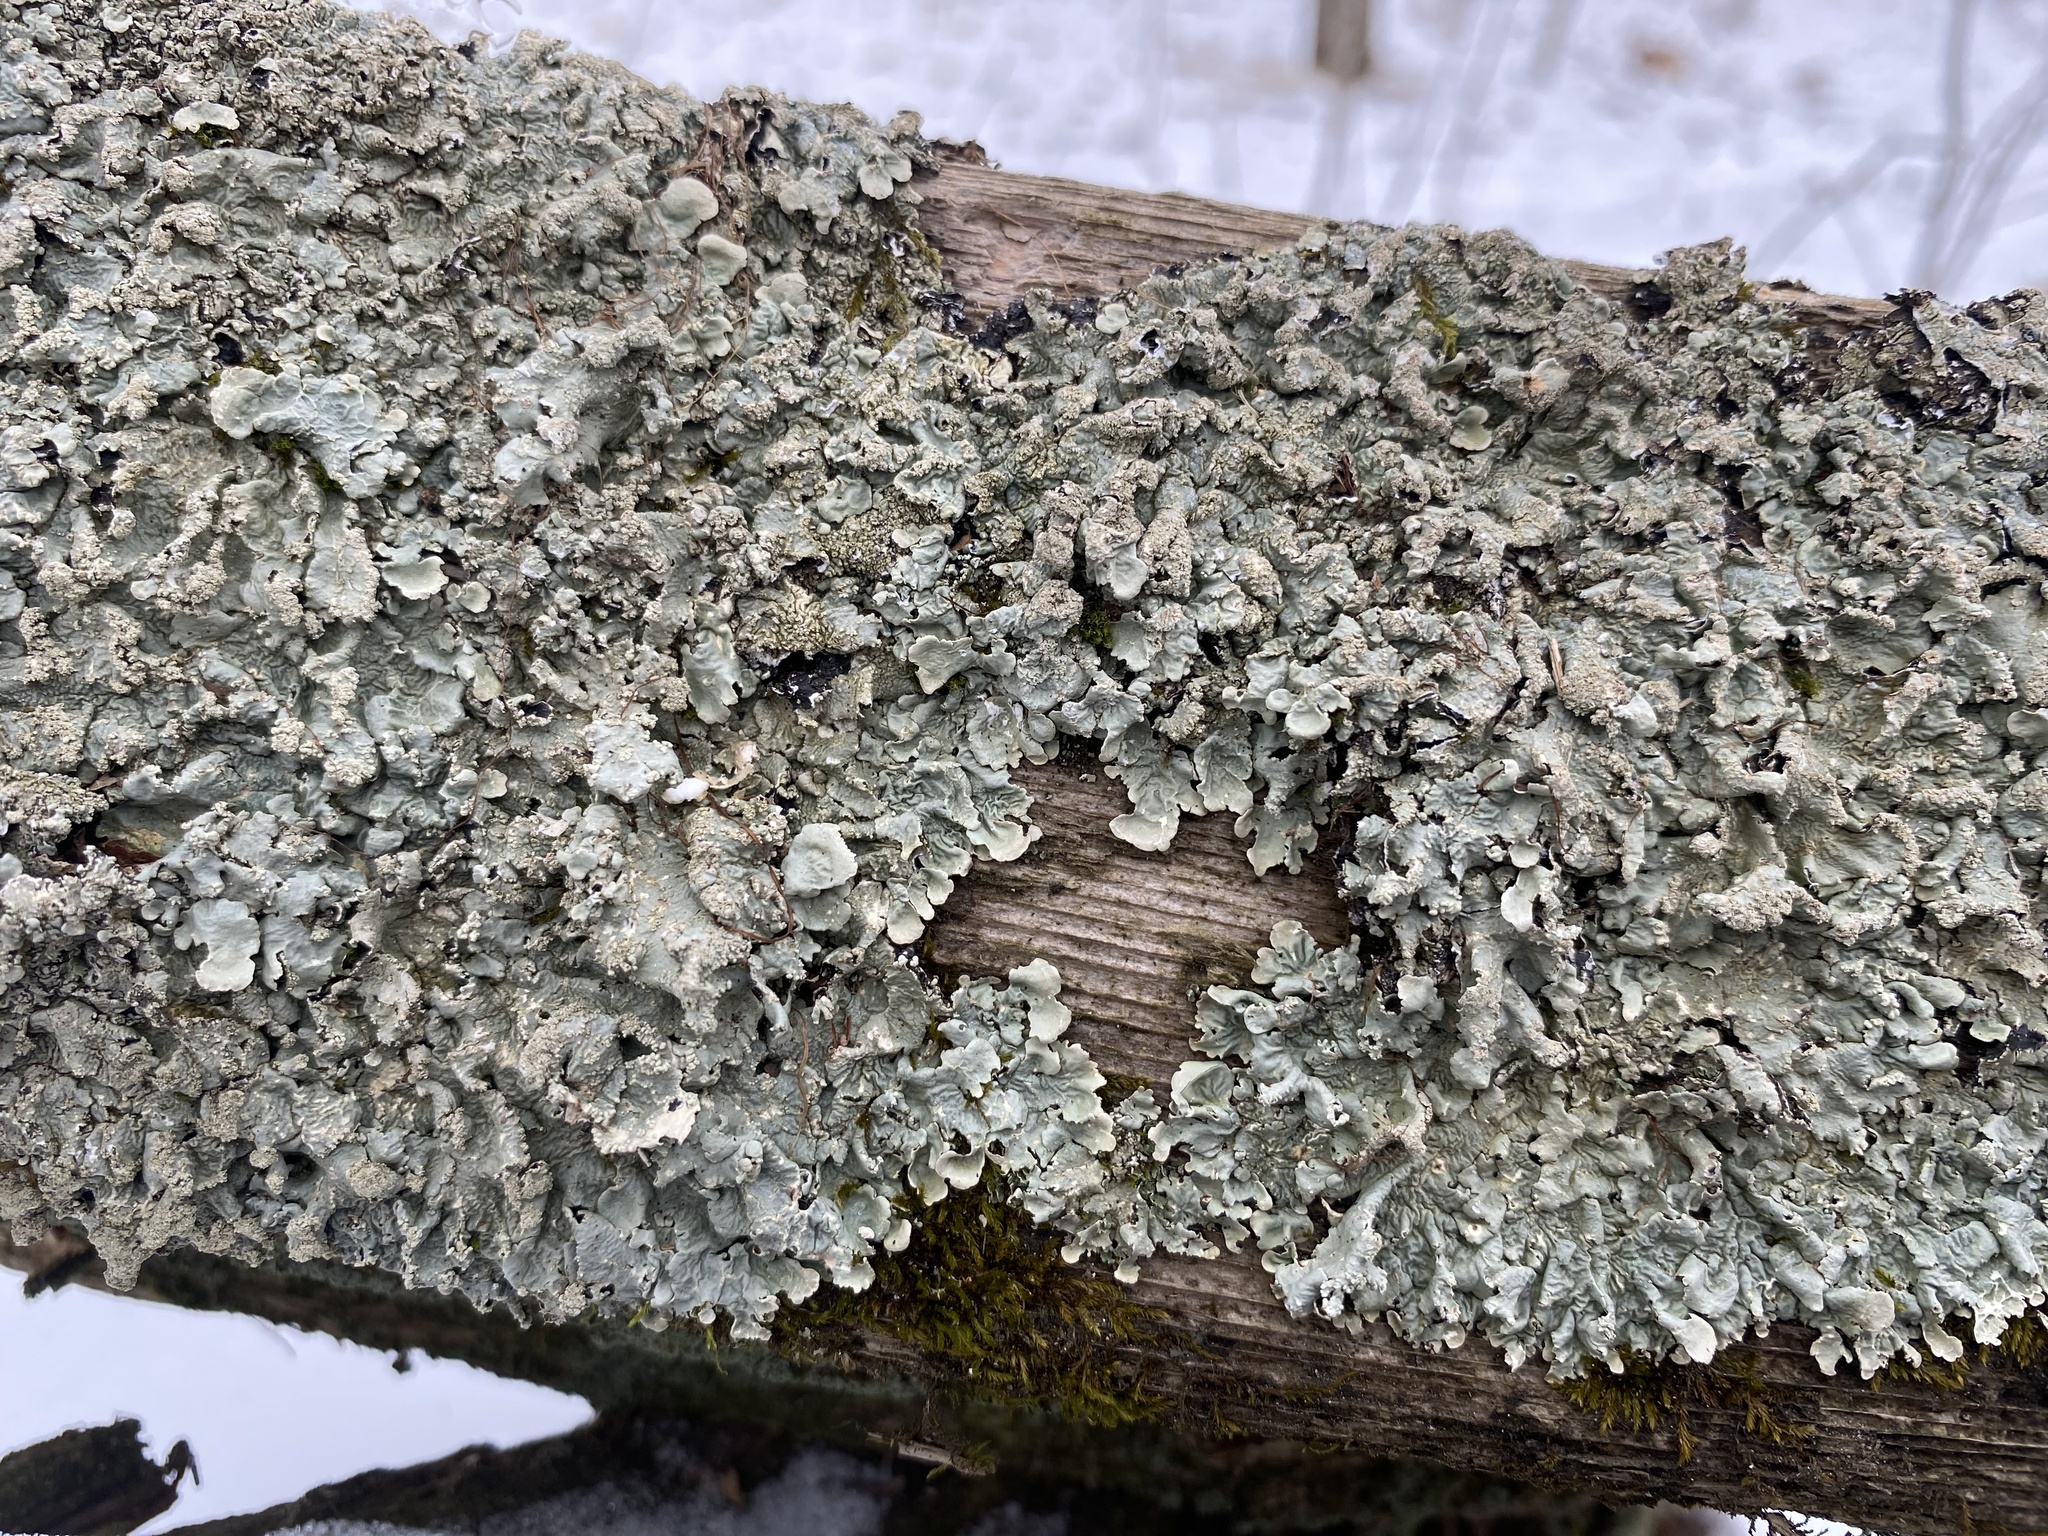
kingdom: Fungi
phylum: Ascomycota
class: Lecanoromycetes
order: Lecanorales
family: Parmeliaceae
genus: Flavoparmelia
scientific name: Flavoparmelia caperata
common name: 40-mile per hour lichen
